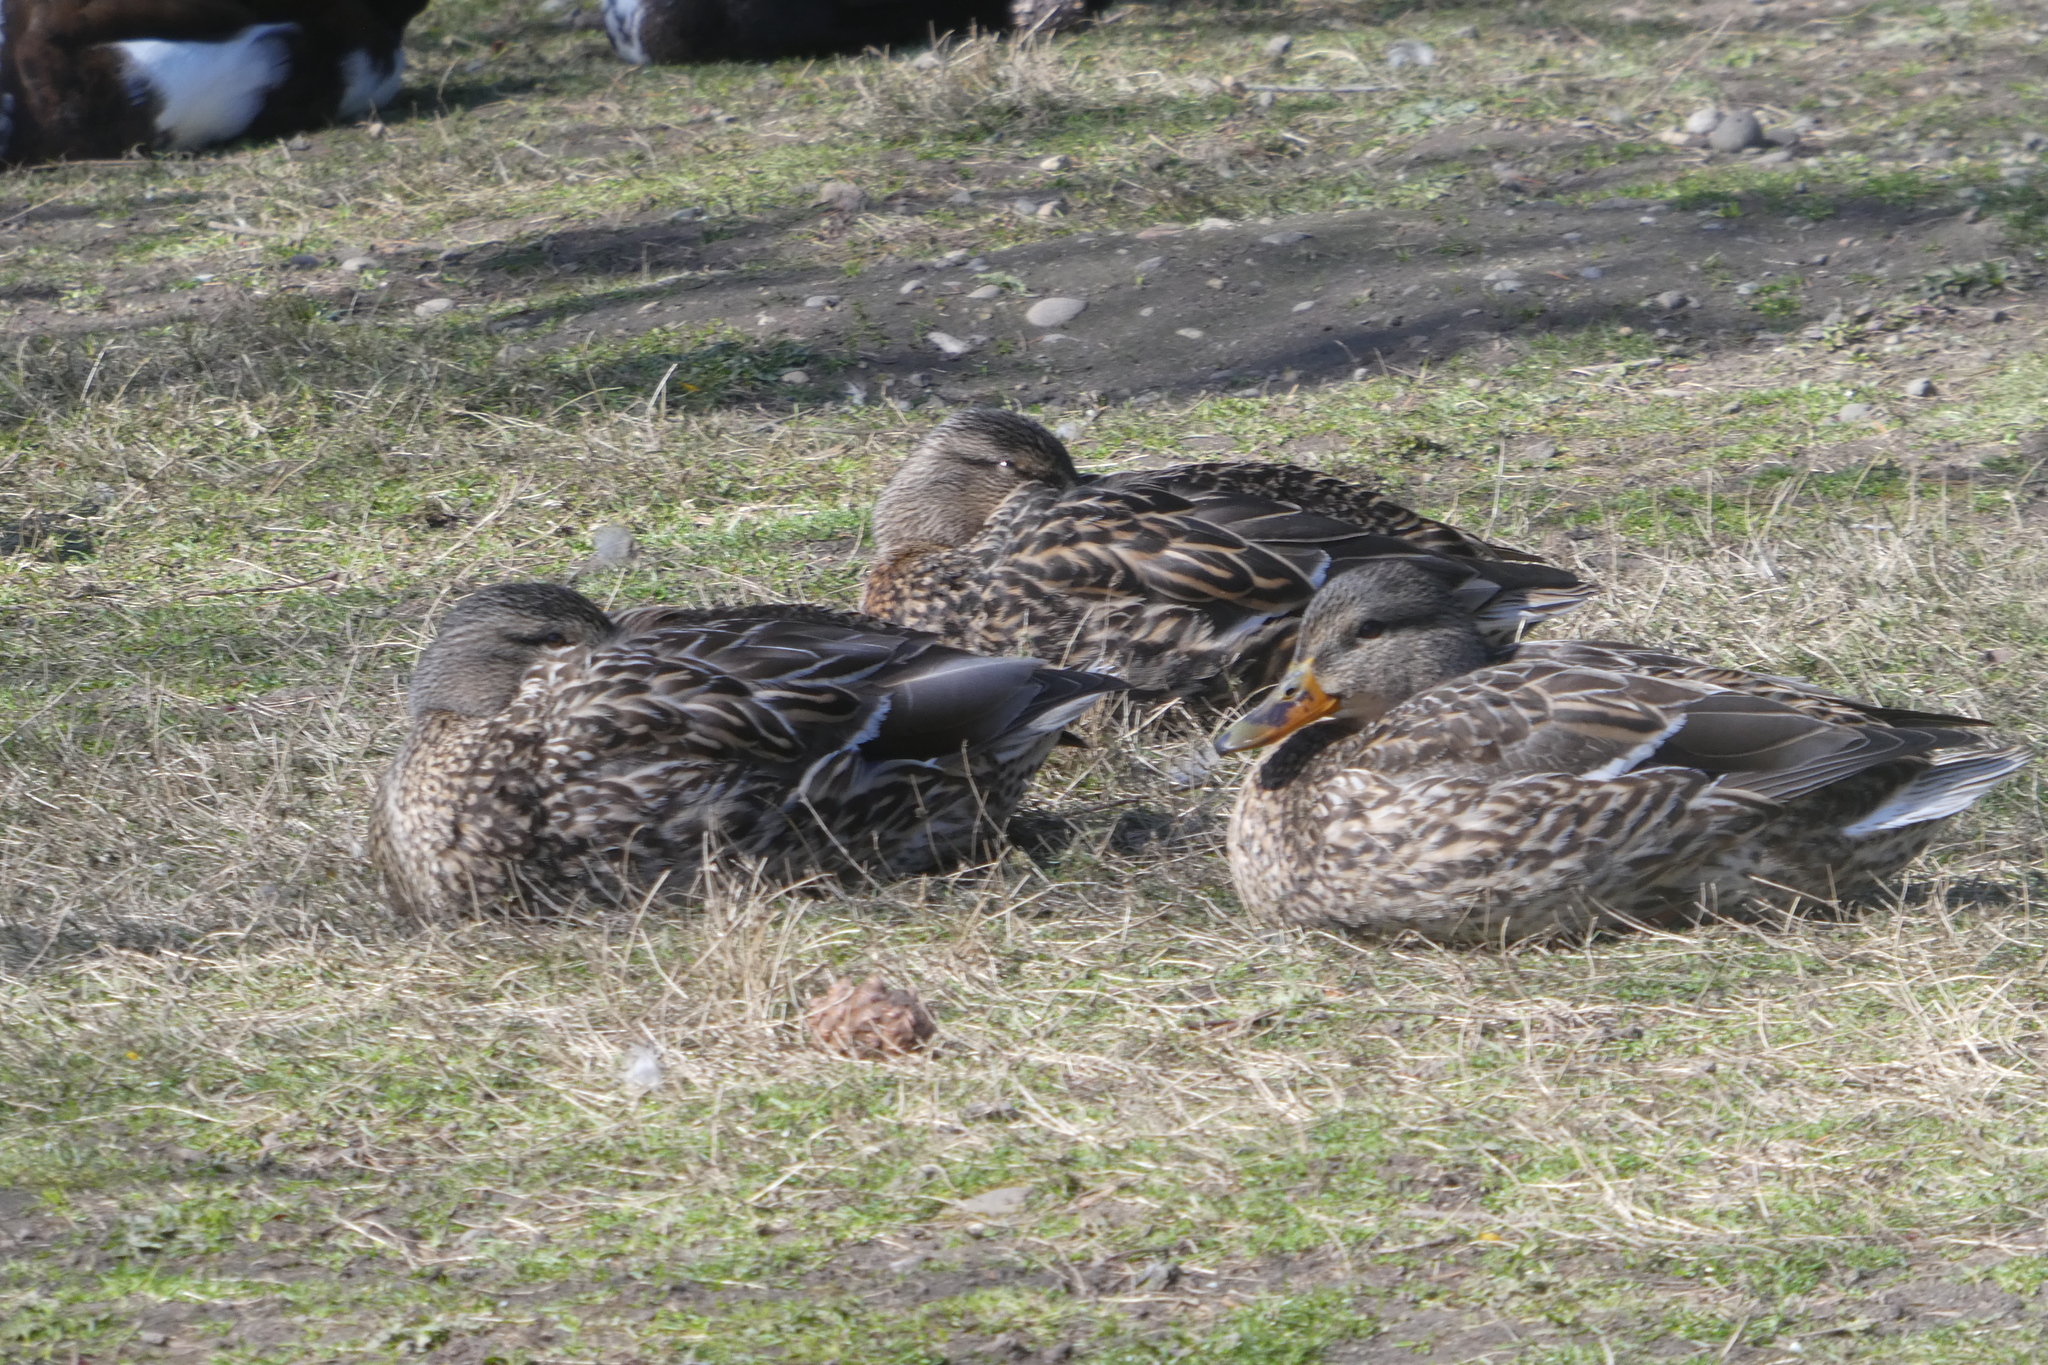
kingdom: Animalia
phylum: Chordata
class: Aves
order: Anseriformes
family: Anatidae
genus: Anas
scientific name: Anas platyrhynchos
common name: Mallard
